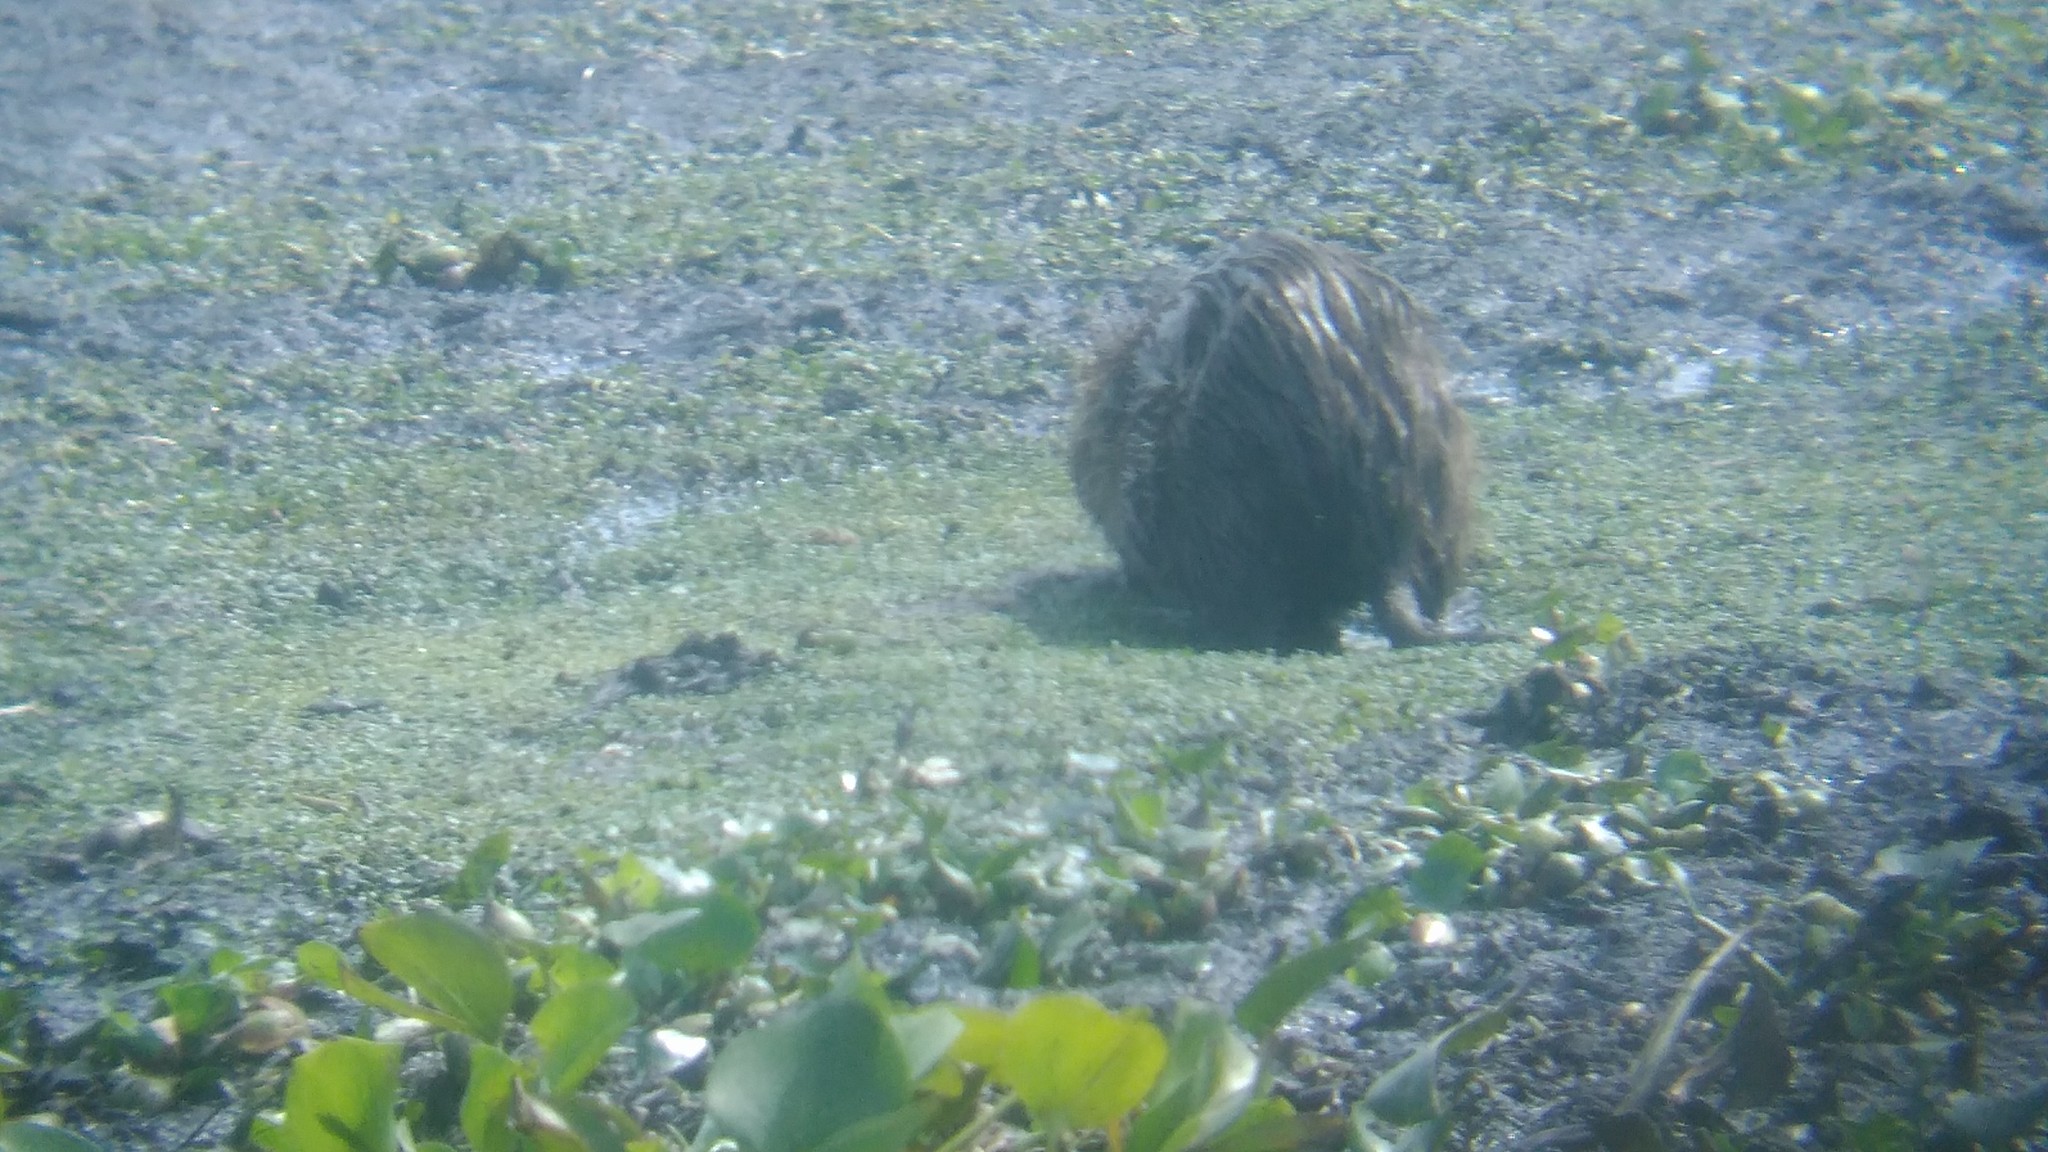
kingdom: Animalia
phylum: Chordata
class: Mammalia
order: Rodentia
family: Myocastoridae
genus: Myocastor
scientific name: Myocastor coypus
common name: Coypu
